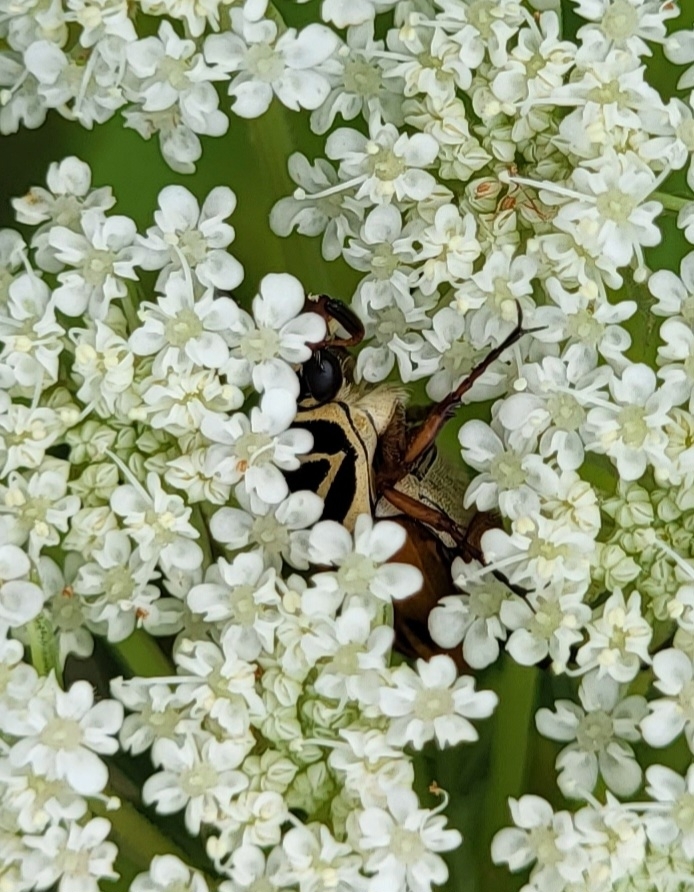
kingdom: Animalia
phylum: Arthropoda
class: Insecta
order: Coleoptera
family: Scarabaeidae
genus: Trigonopeltastes
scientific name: Trigonopeltastes delta
